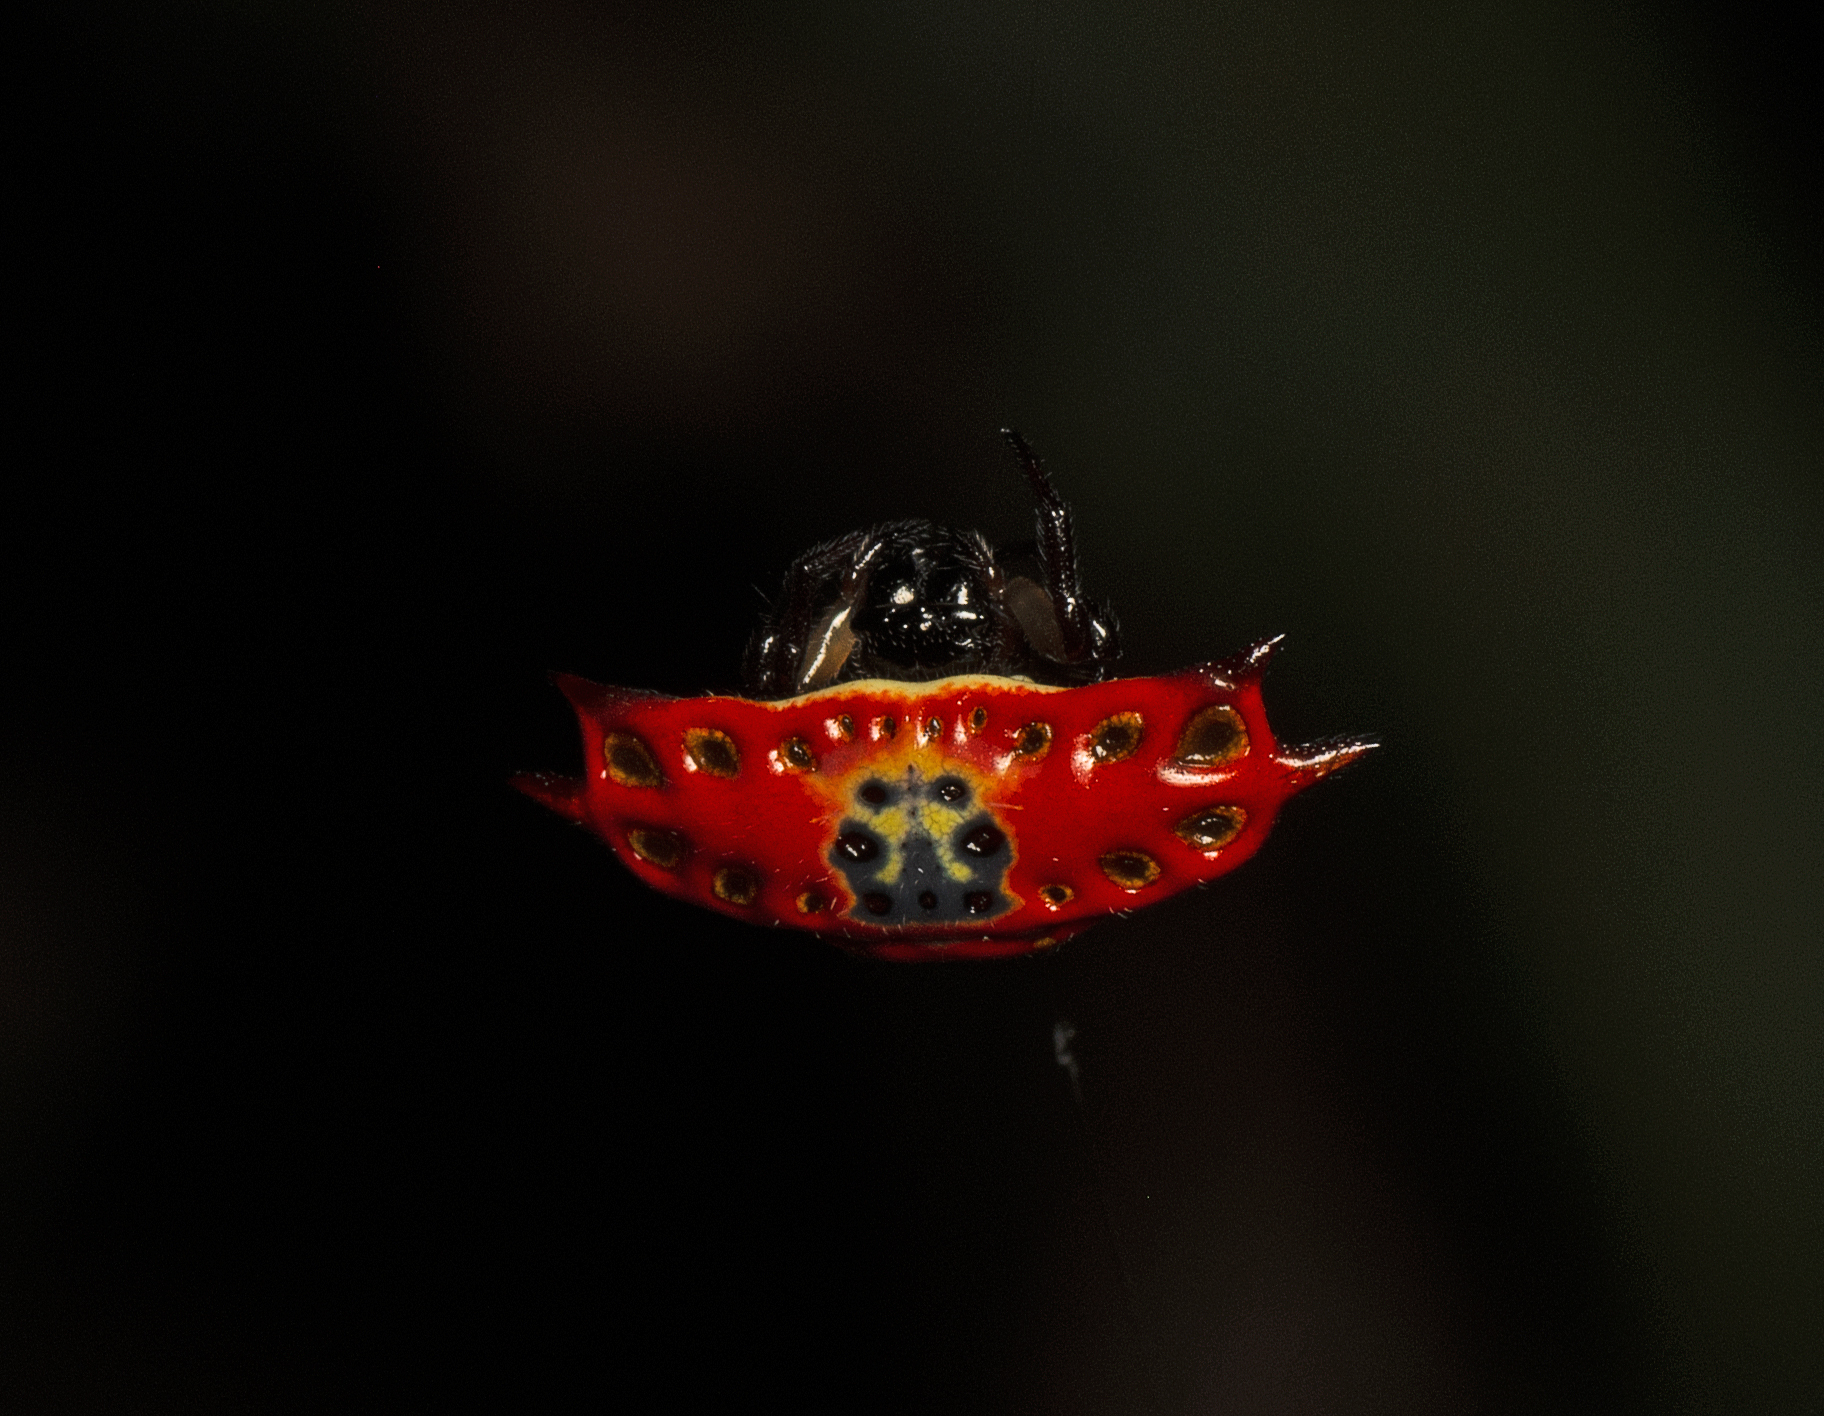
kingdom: Animalia
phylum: Arthropoda
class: Arachnida
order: Araneae
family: Araneidae
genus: Gasteracantha
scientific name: Gasteracantha quadrispinosa
